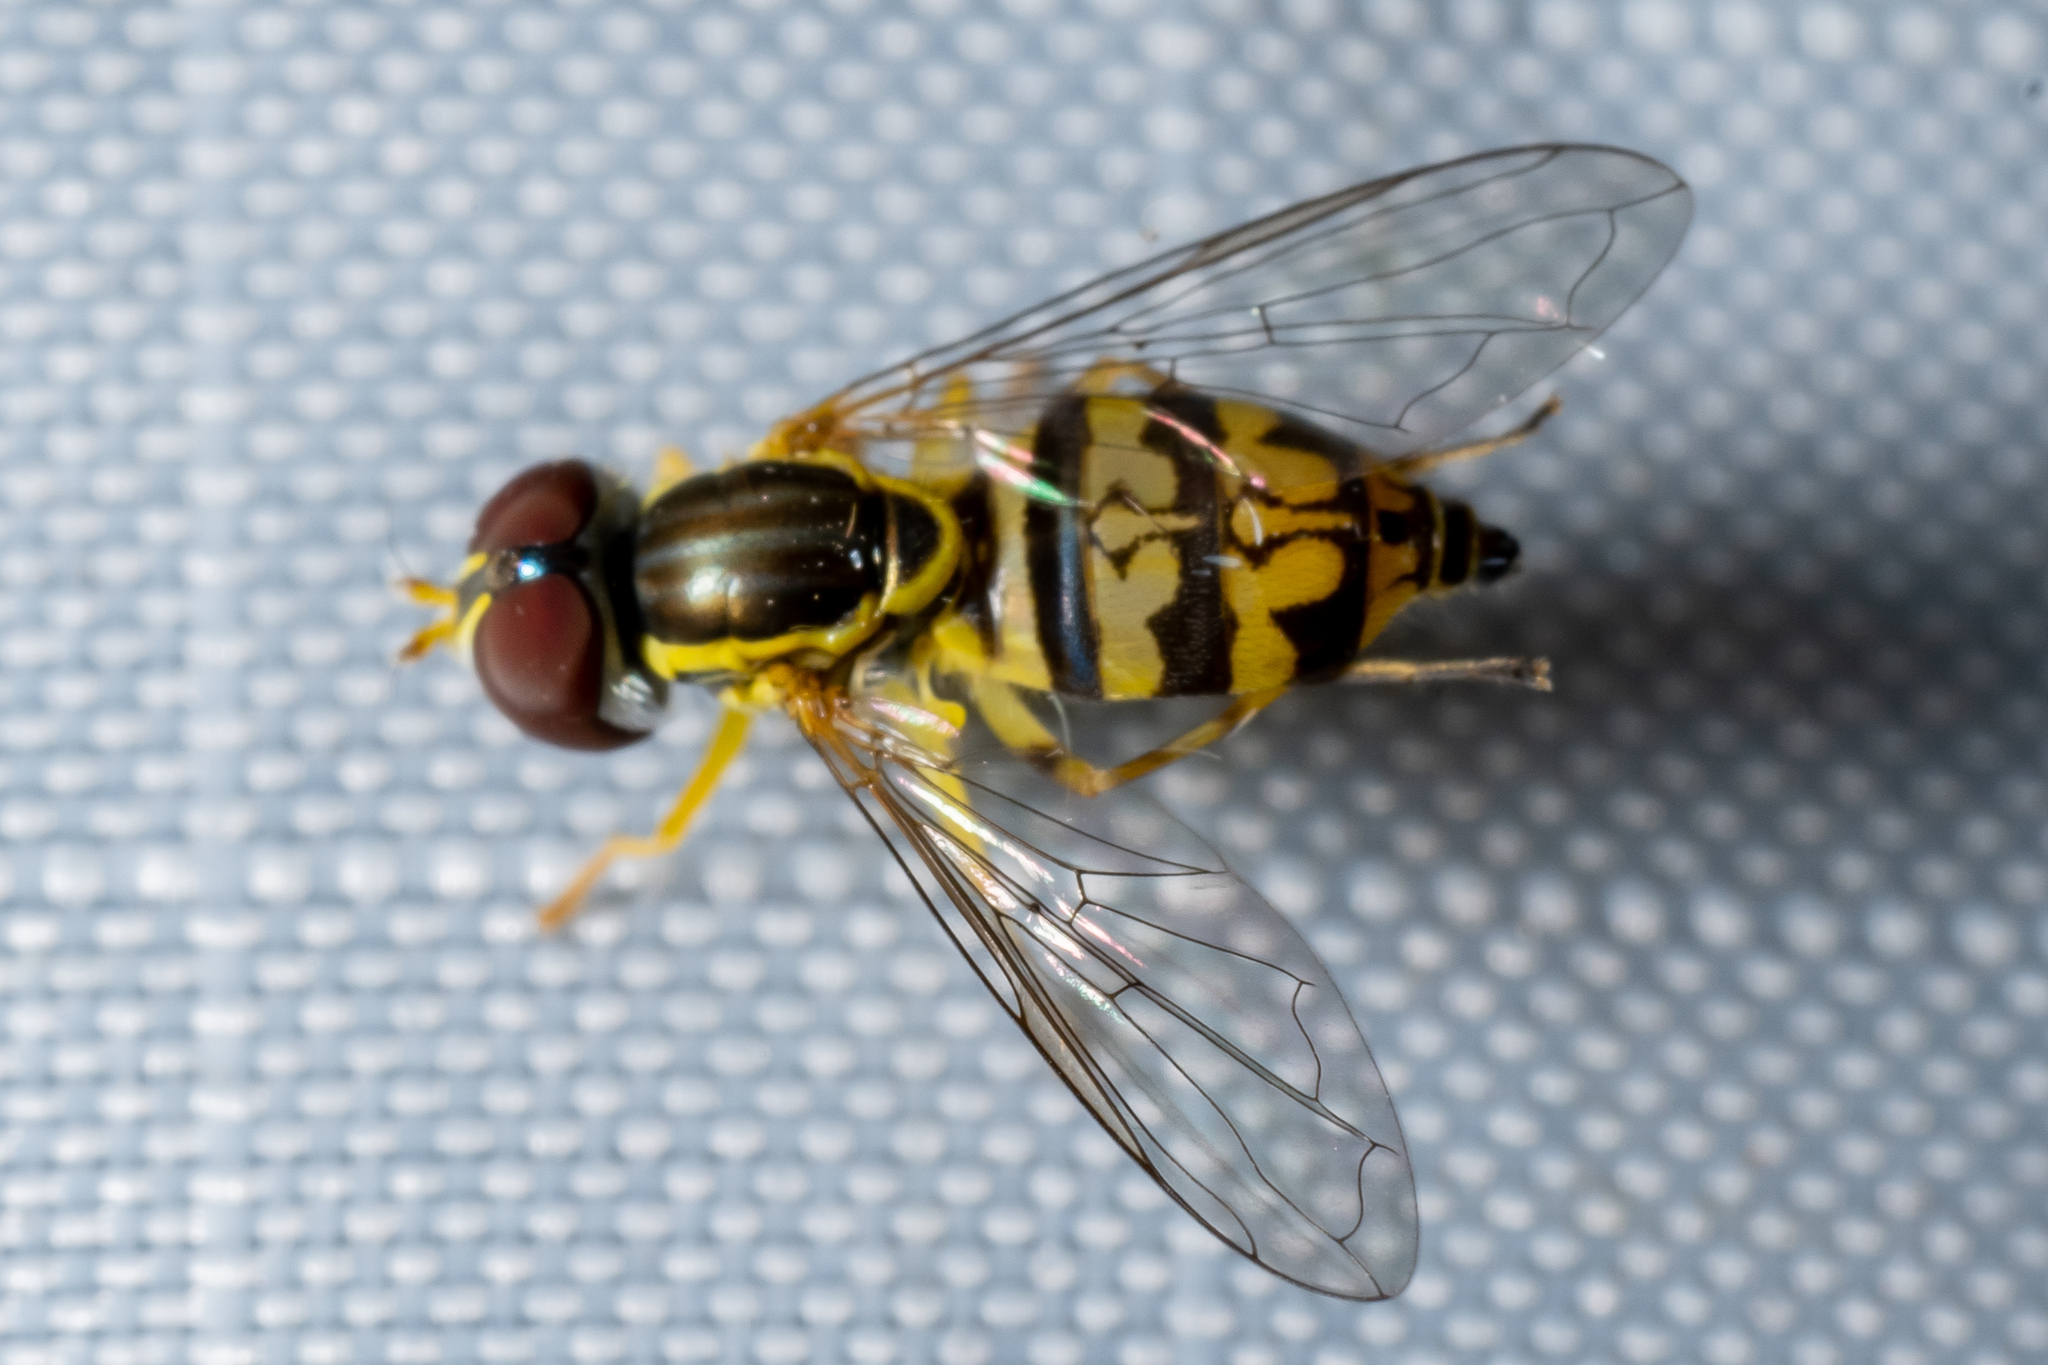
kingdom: Animalia
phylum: Arthropoda
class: Insecta
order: Diptera
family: Syrphidae
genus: Toxomerus
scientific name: Toxomerus geminatus
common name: Eastern calligrapher
